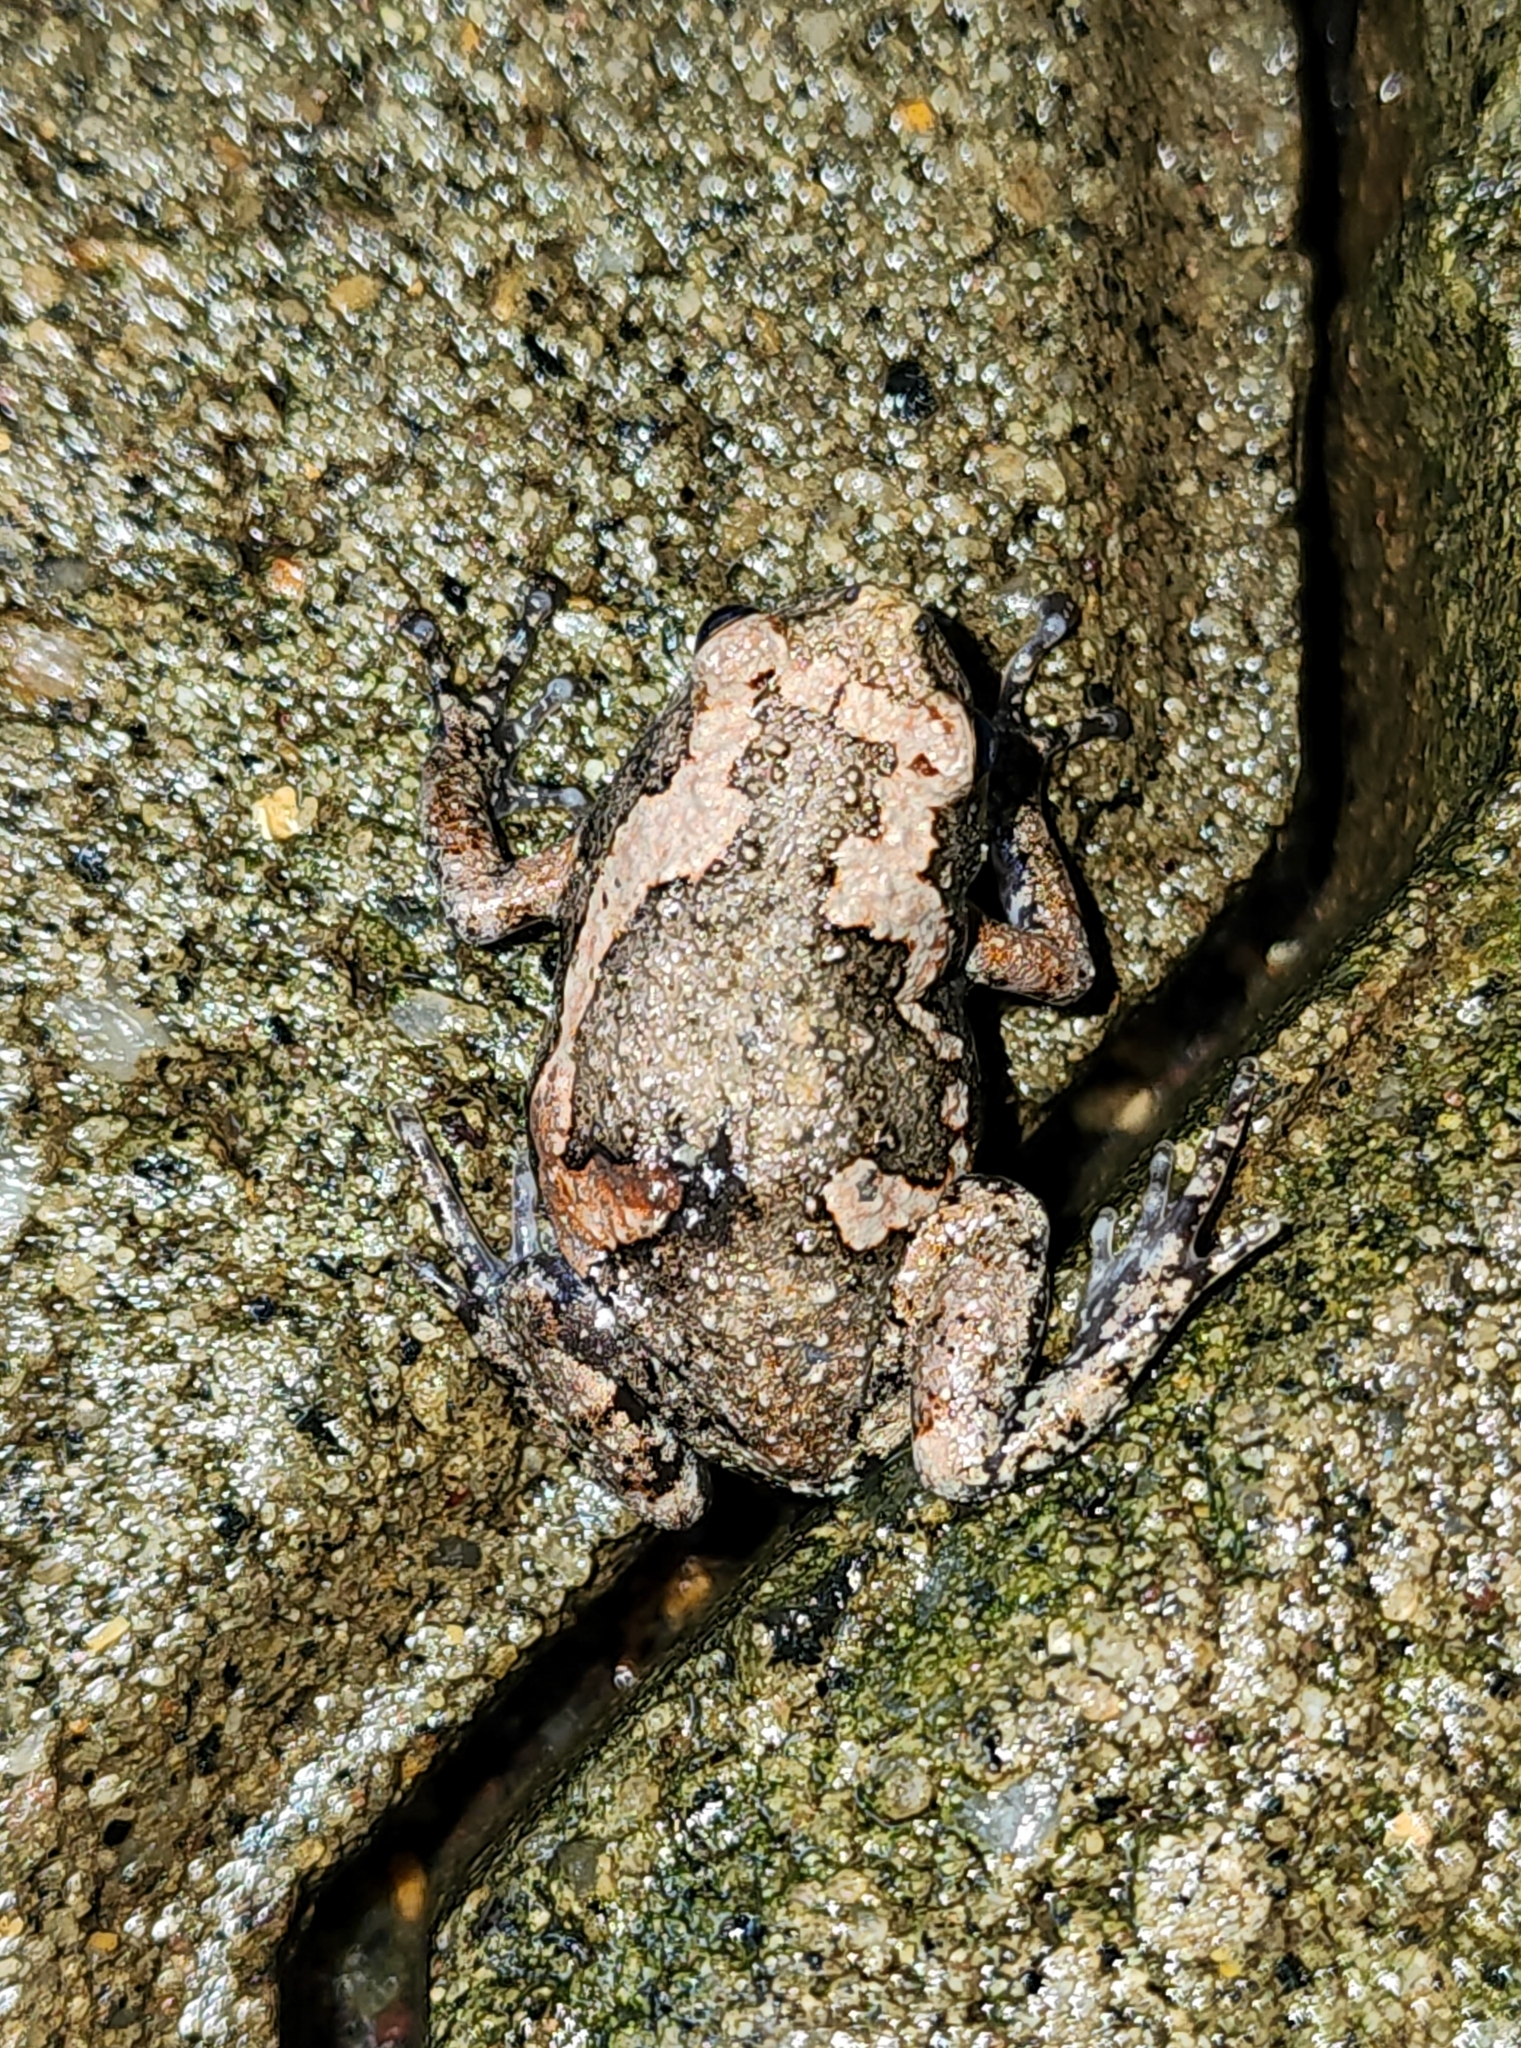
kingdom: Animalia
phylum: Chordata
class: Amphibia
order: Anura
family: Microhylidae
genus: Uperodon
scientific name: Uperodon taprobanicus
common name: Ceylon kaloula
